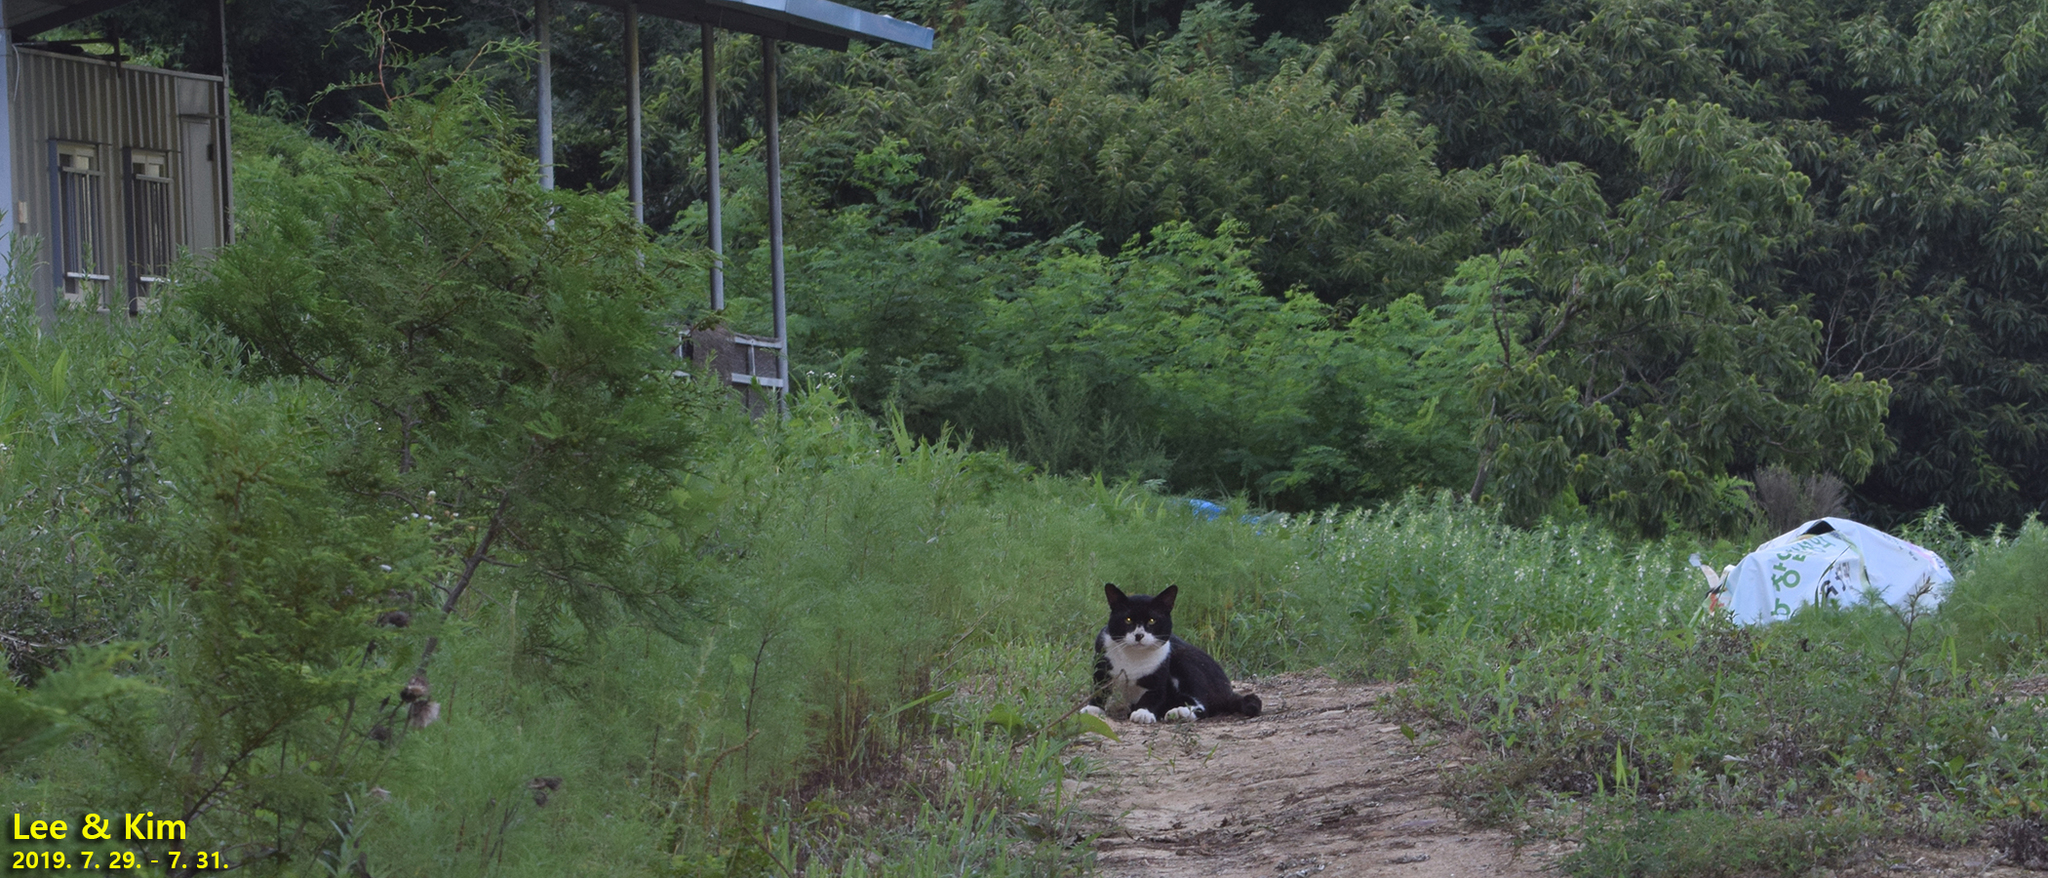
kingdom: Animalia
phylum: Chordata
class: Mammalia
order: Carnivora
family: Felidae
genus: Felis
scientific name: Felis catus
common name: Domestic cat
